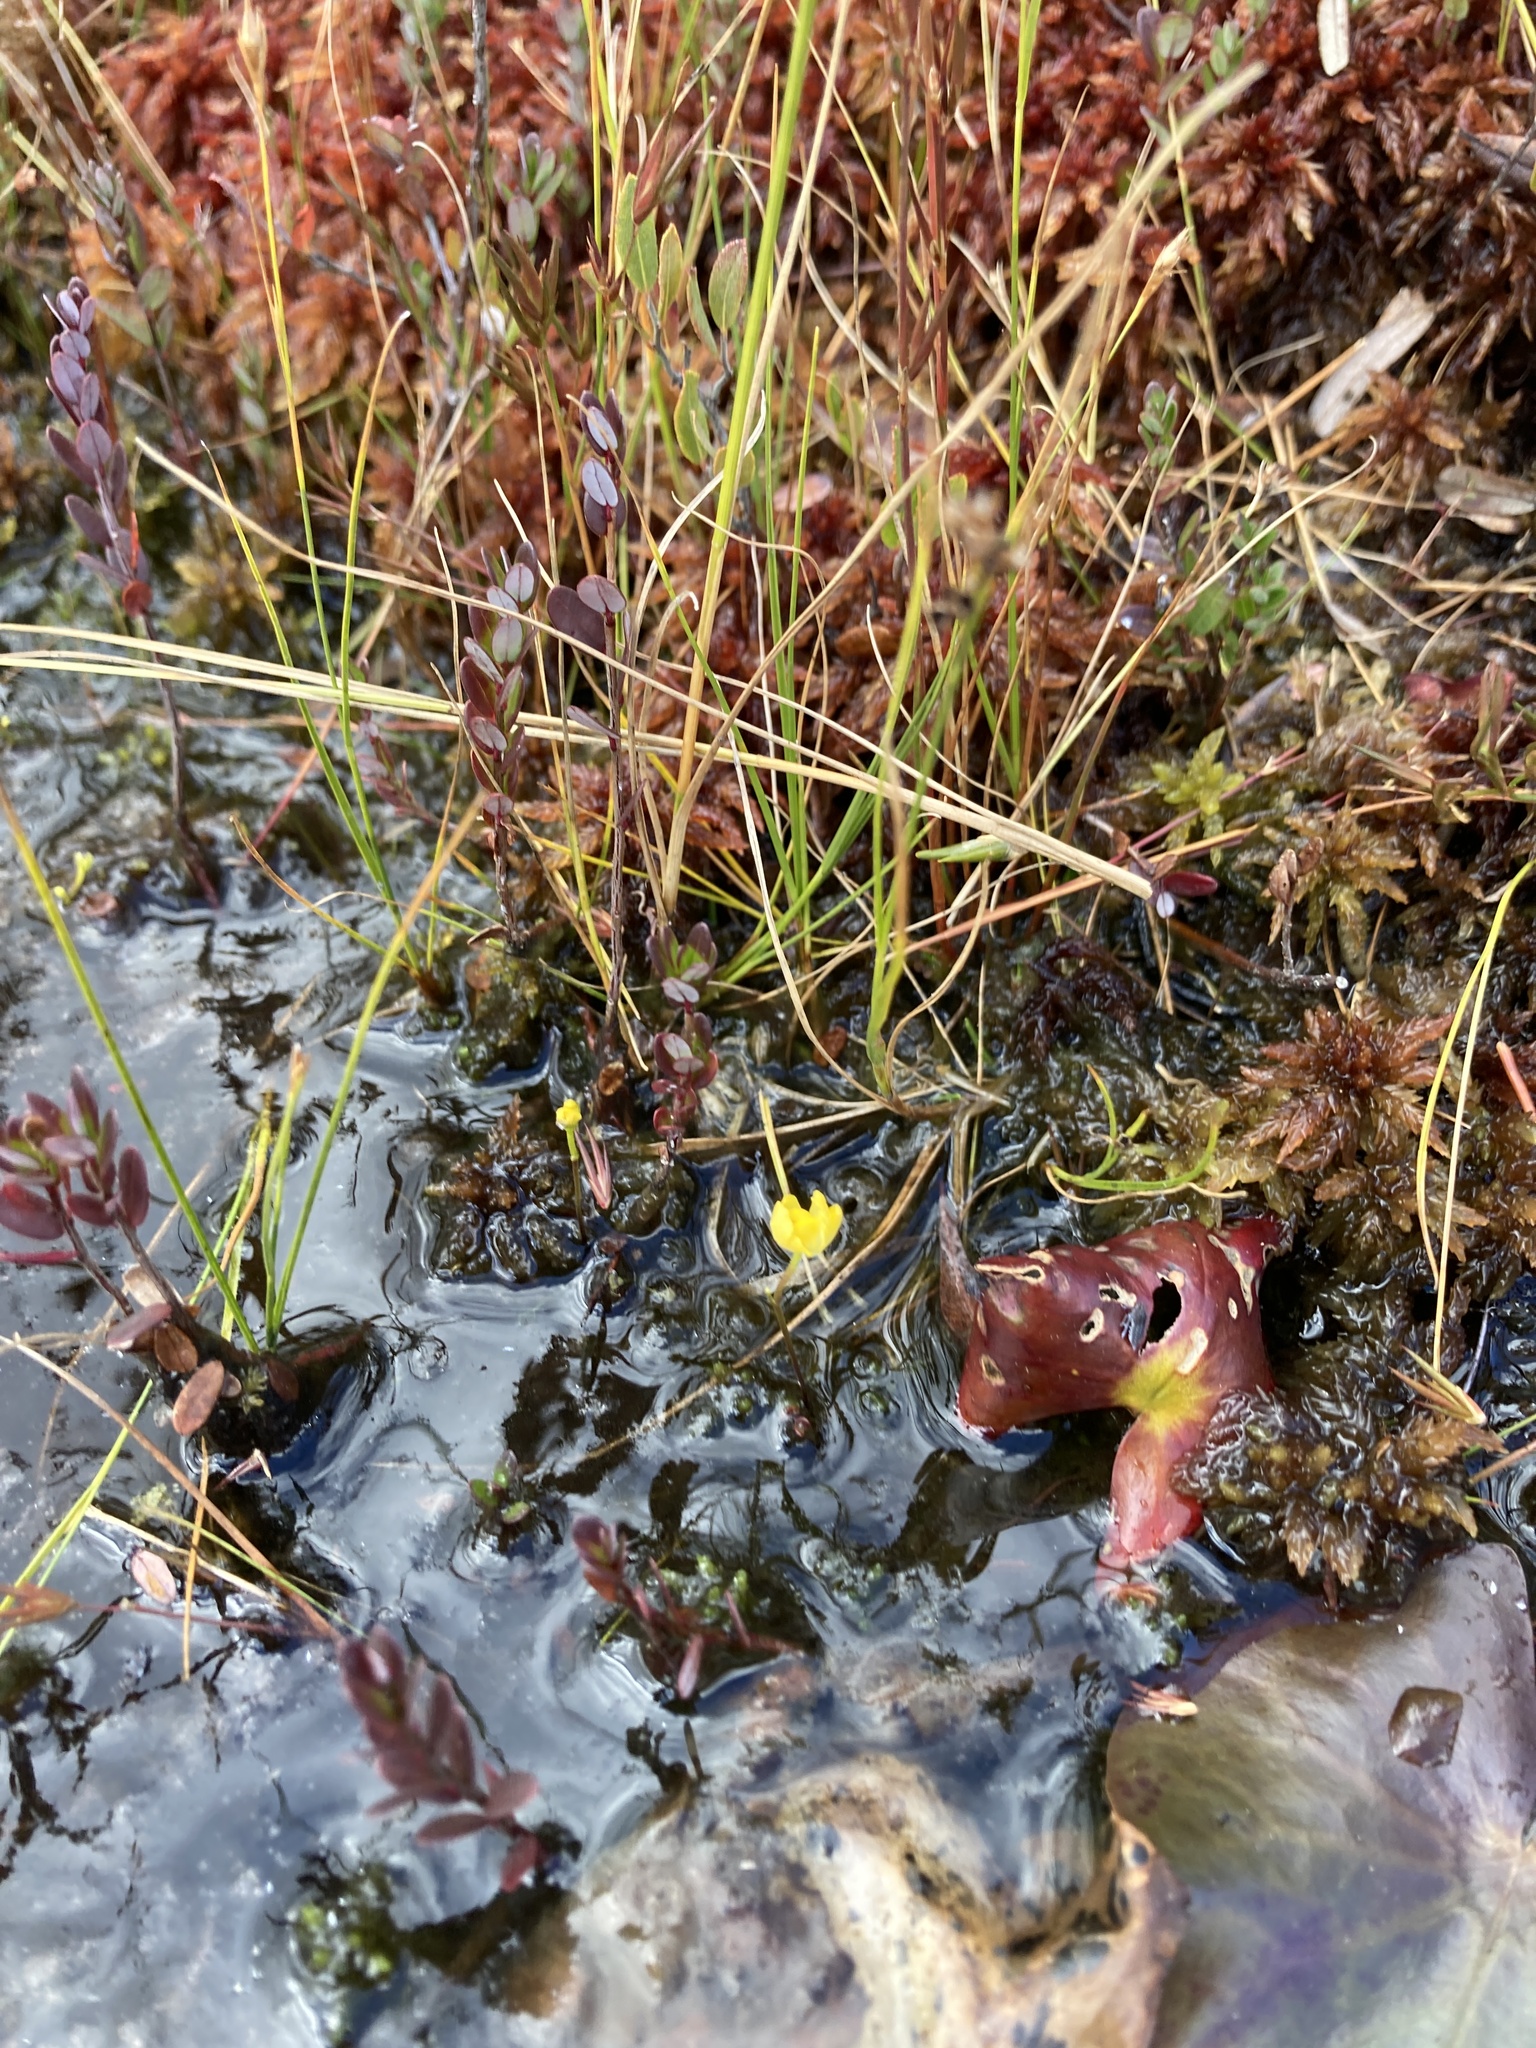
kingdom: Plantae
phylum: Tracheophyta
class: Magnoliopsida
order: Lamiales
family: Lentibulariaceae
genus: Utricularia
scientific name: Utricularia gibba
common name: Humped bladderwort
